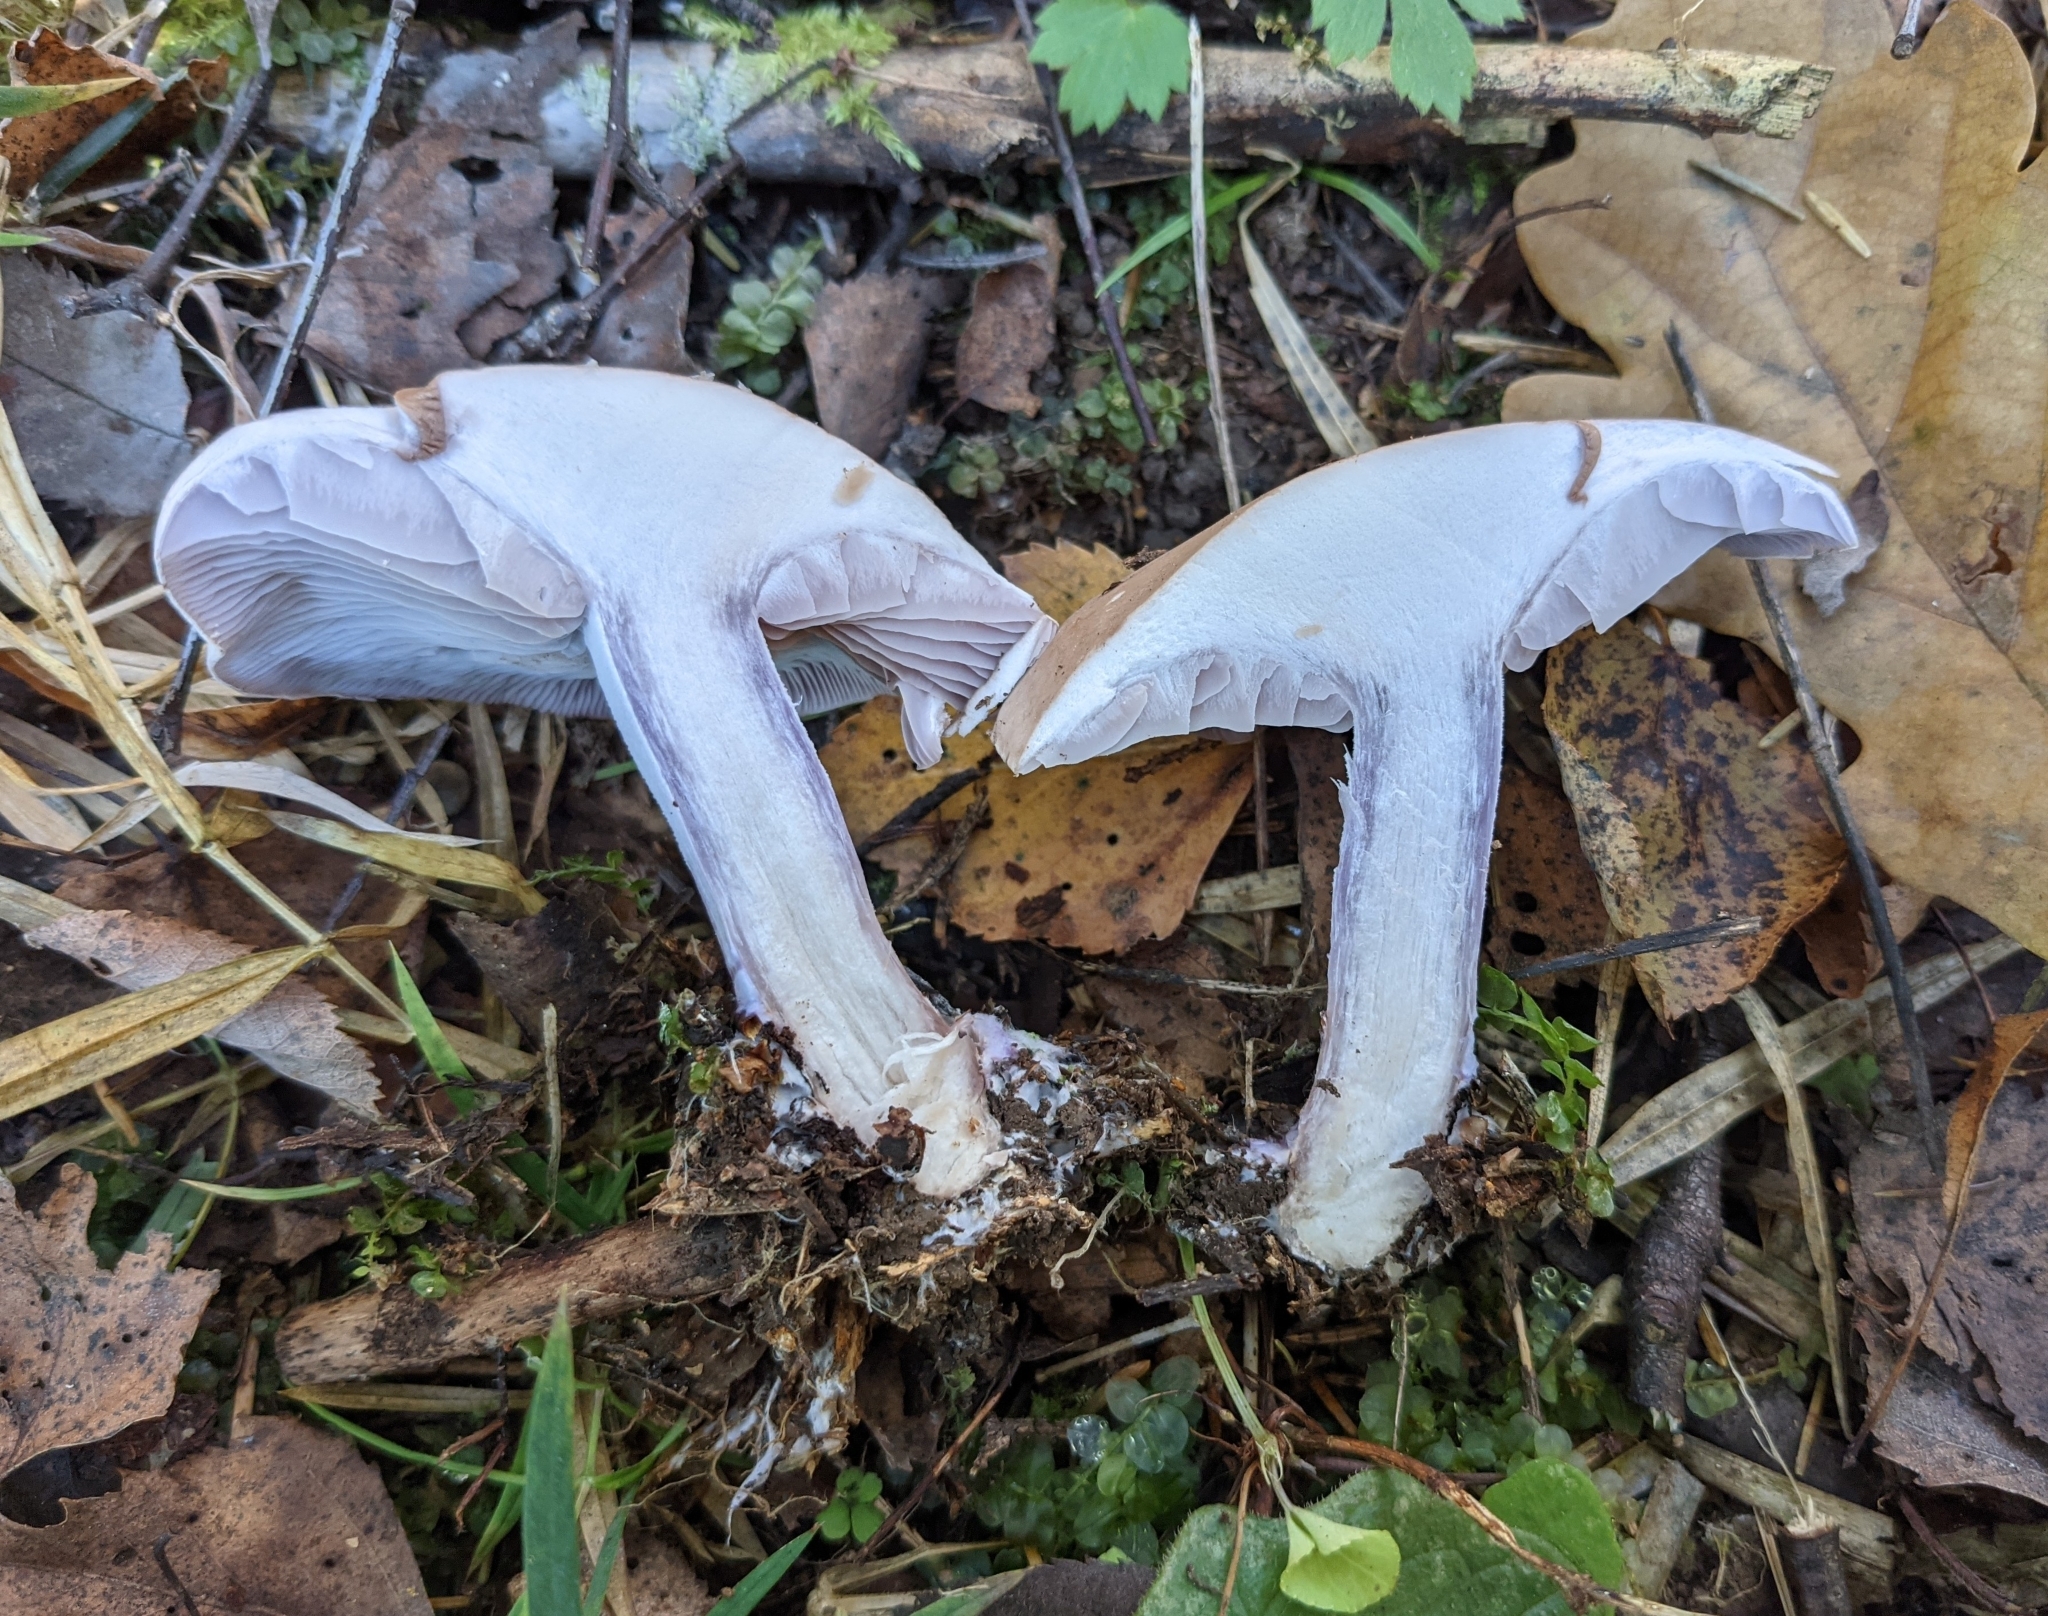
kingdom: Fungi
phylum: Basidiomycota
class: Agaricomycetes
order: Agaricales
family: Tricholomataceae
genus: Collybia
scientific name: Collybia
